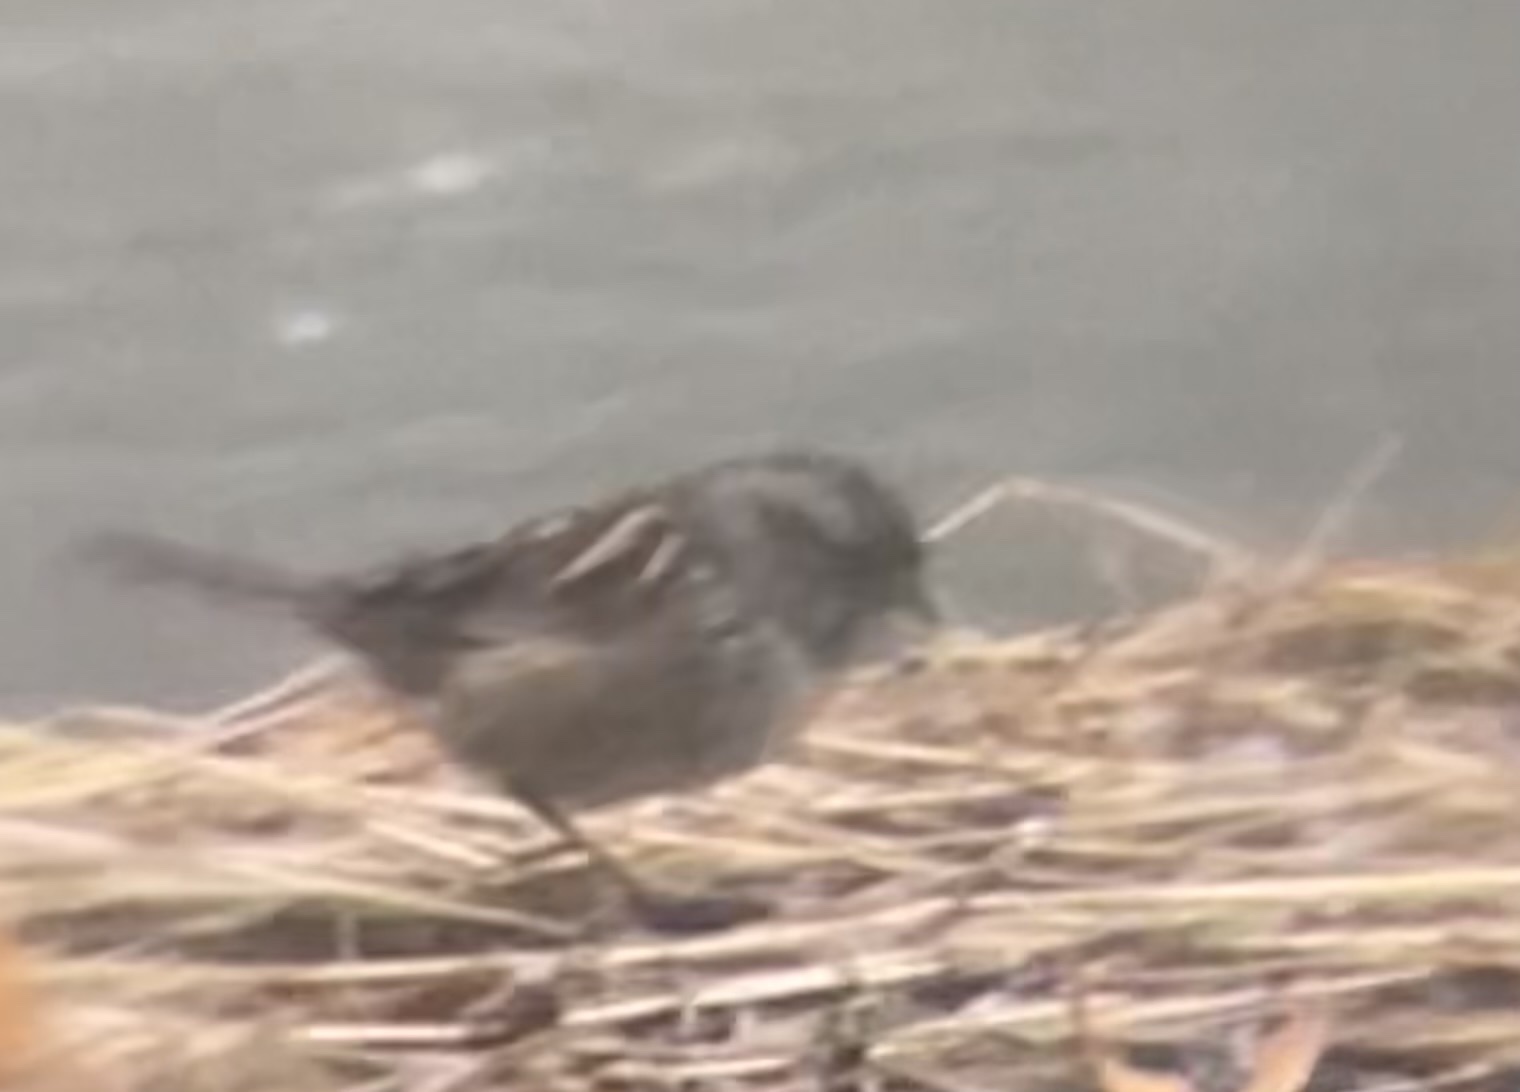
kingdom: Animalia
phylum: Chordata
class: Aves
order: Passeriformes
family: Passerellidae
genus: Melospiza
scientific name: Melospiza georgiana
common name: Swamp sparrow
